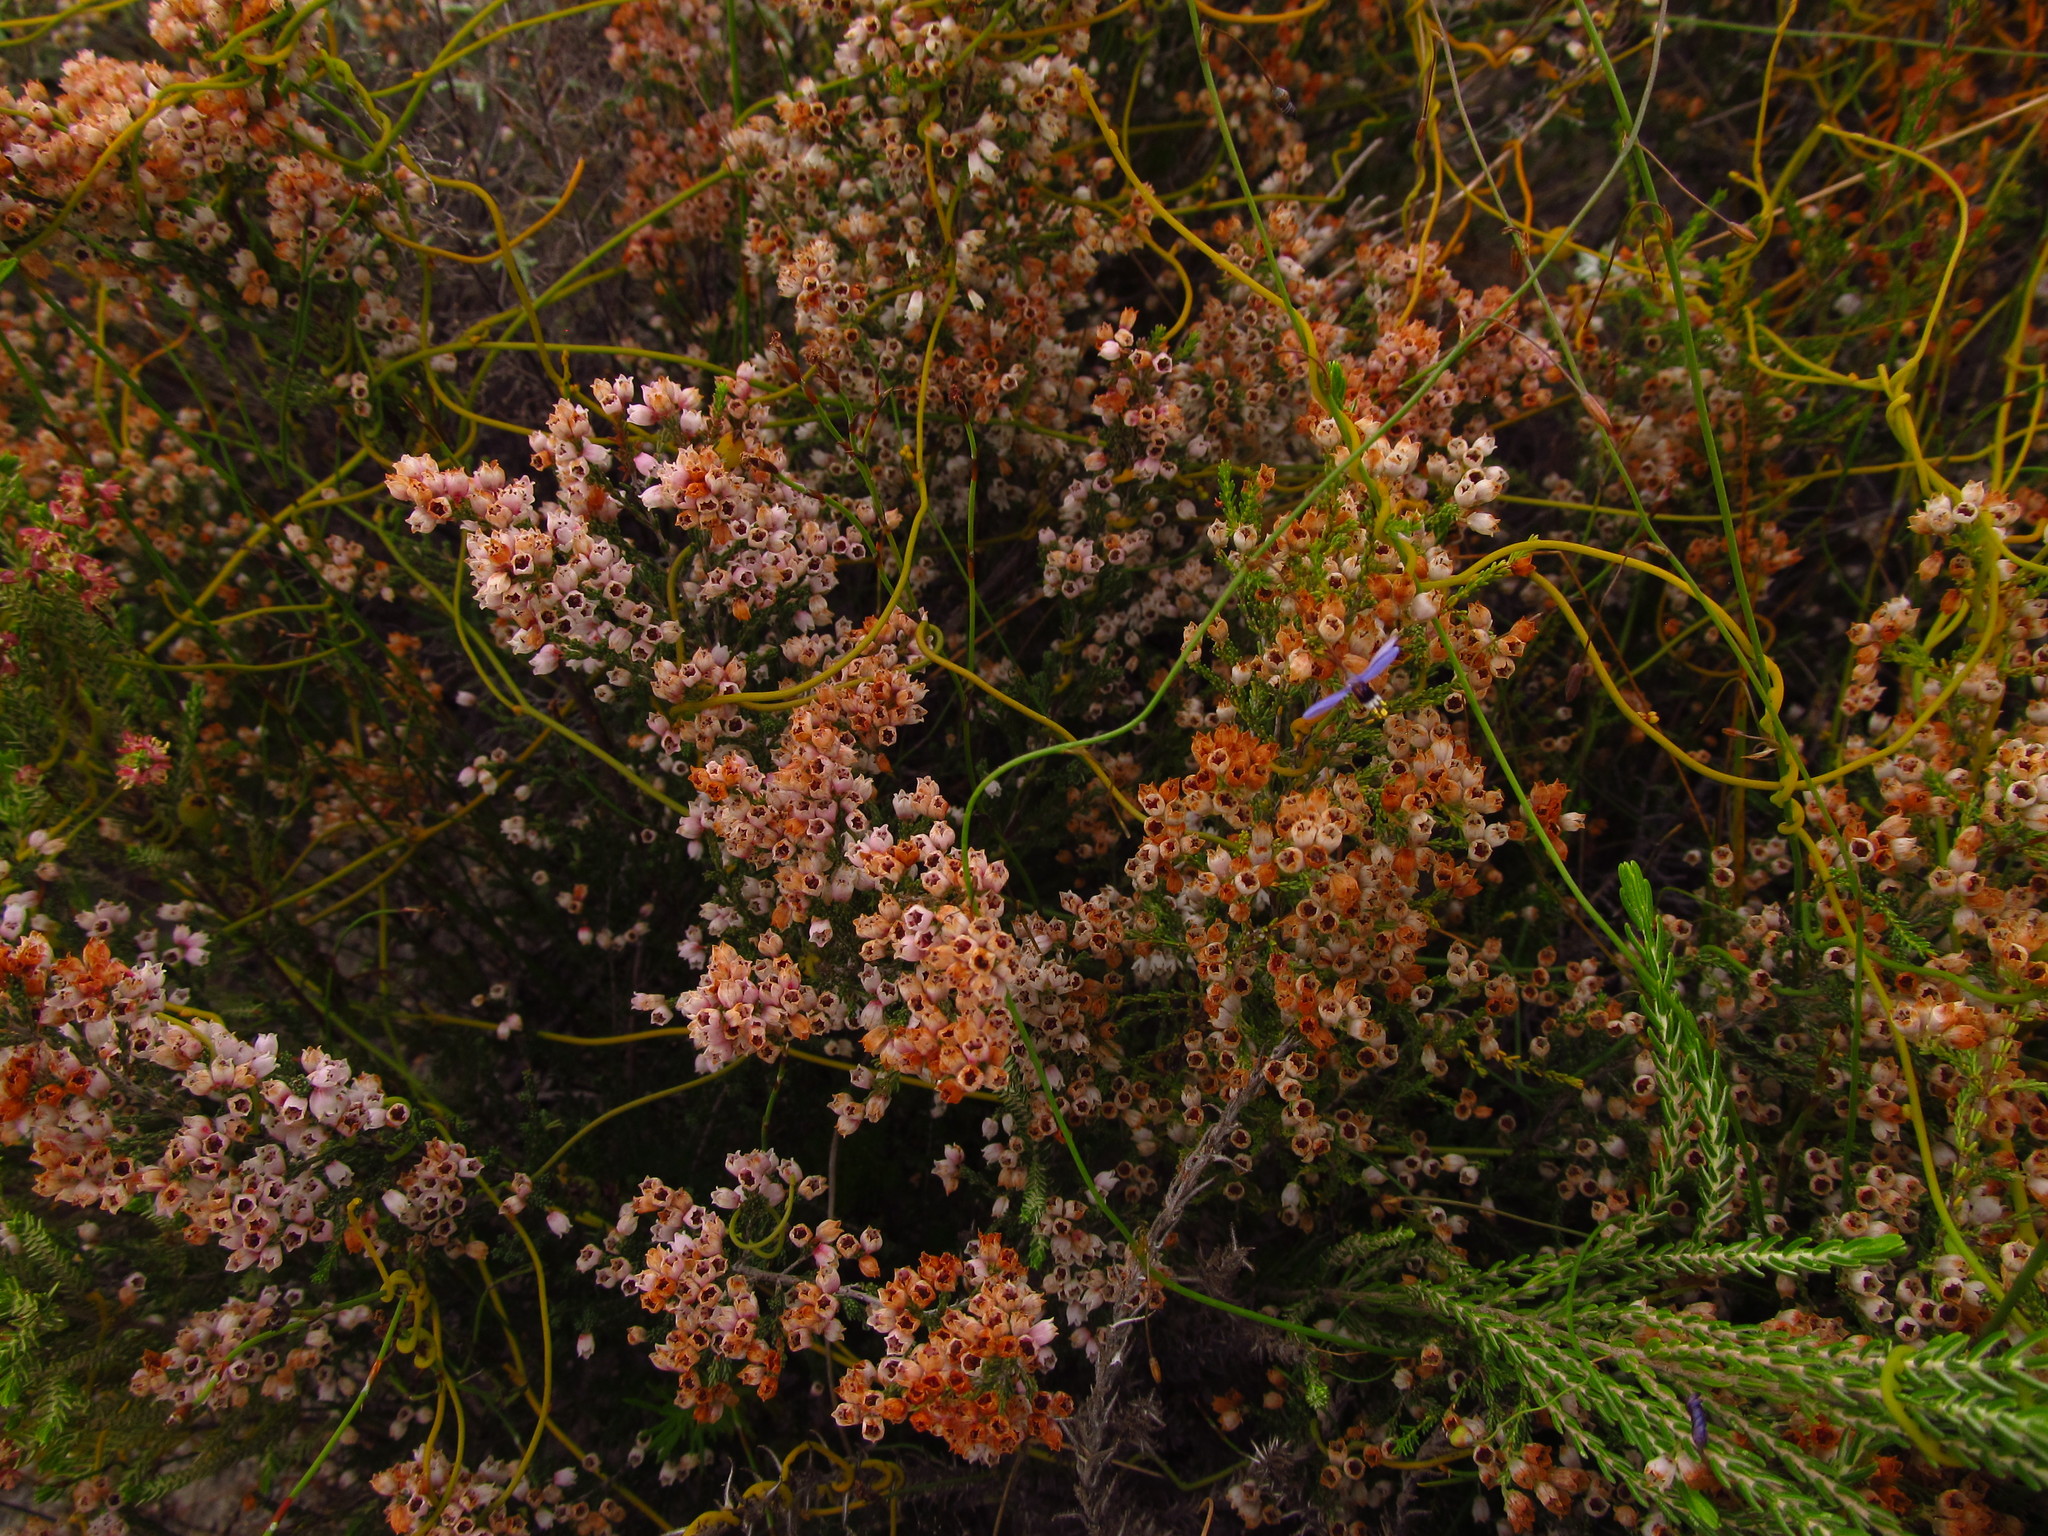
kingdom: Plantae
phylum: Tracheophyta
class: Liliopsida
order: Asparagales
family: Asphodelaceae
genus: Caesia
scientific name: Caesia contorta
